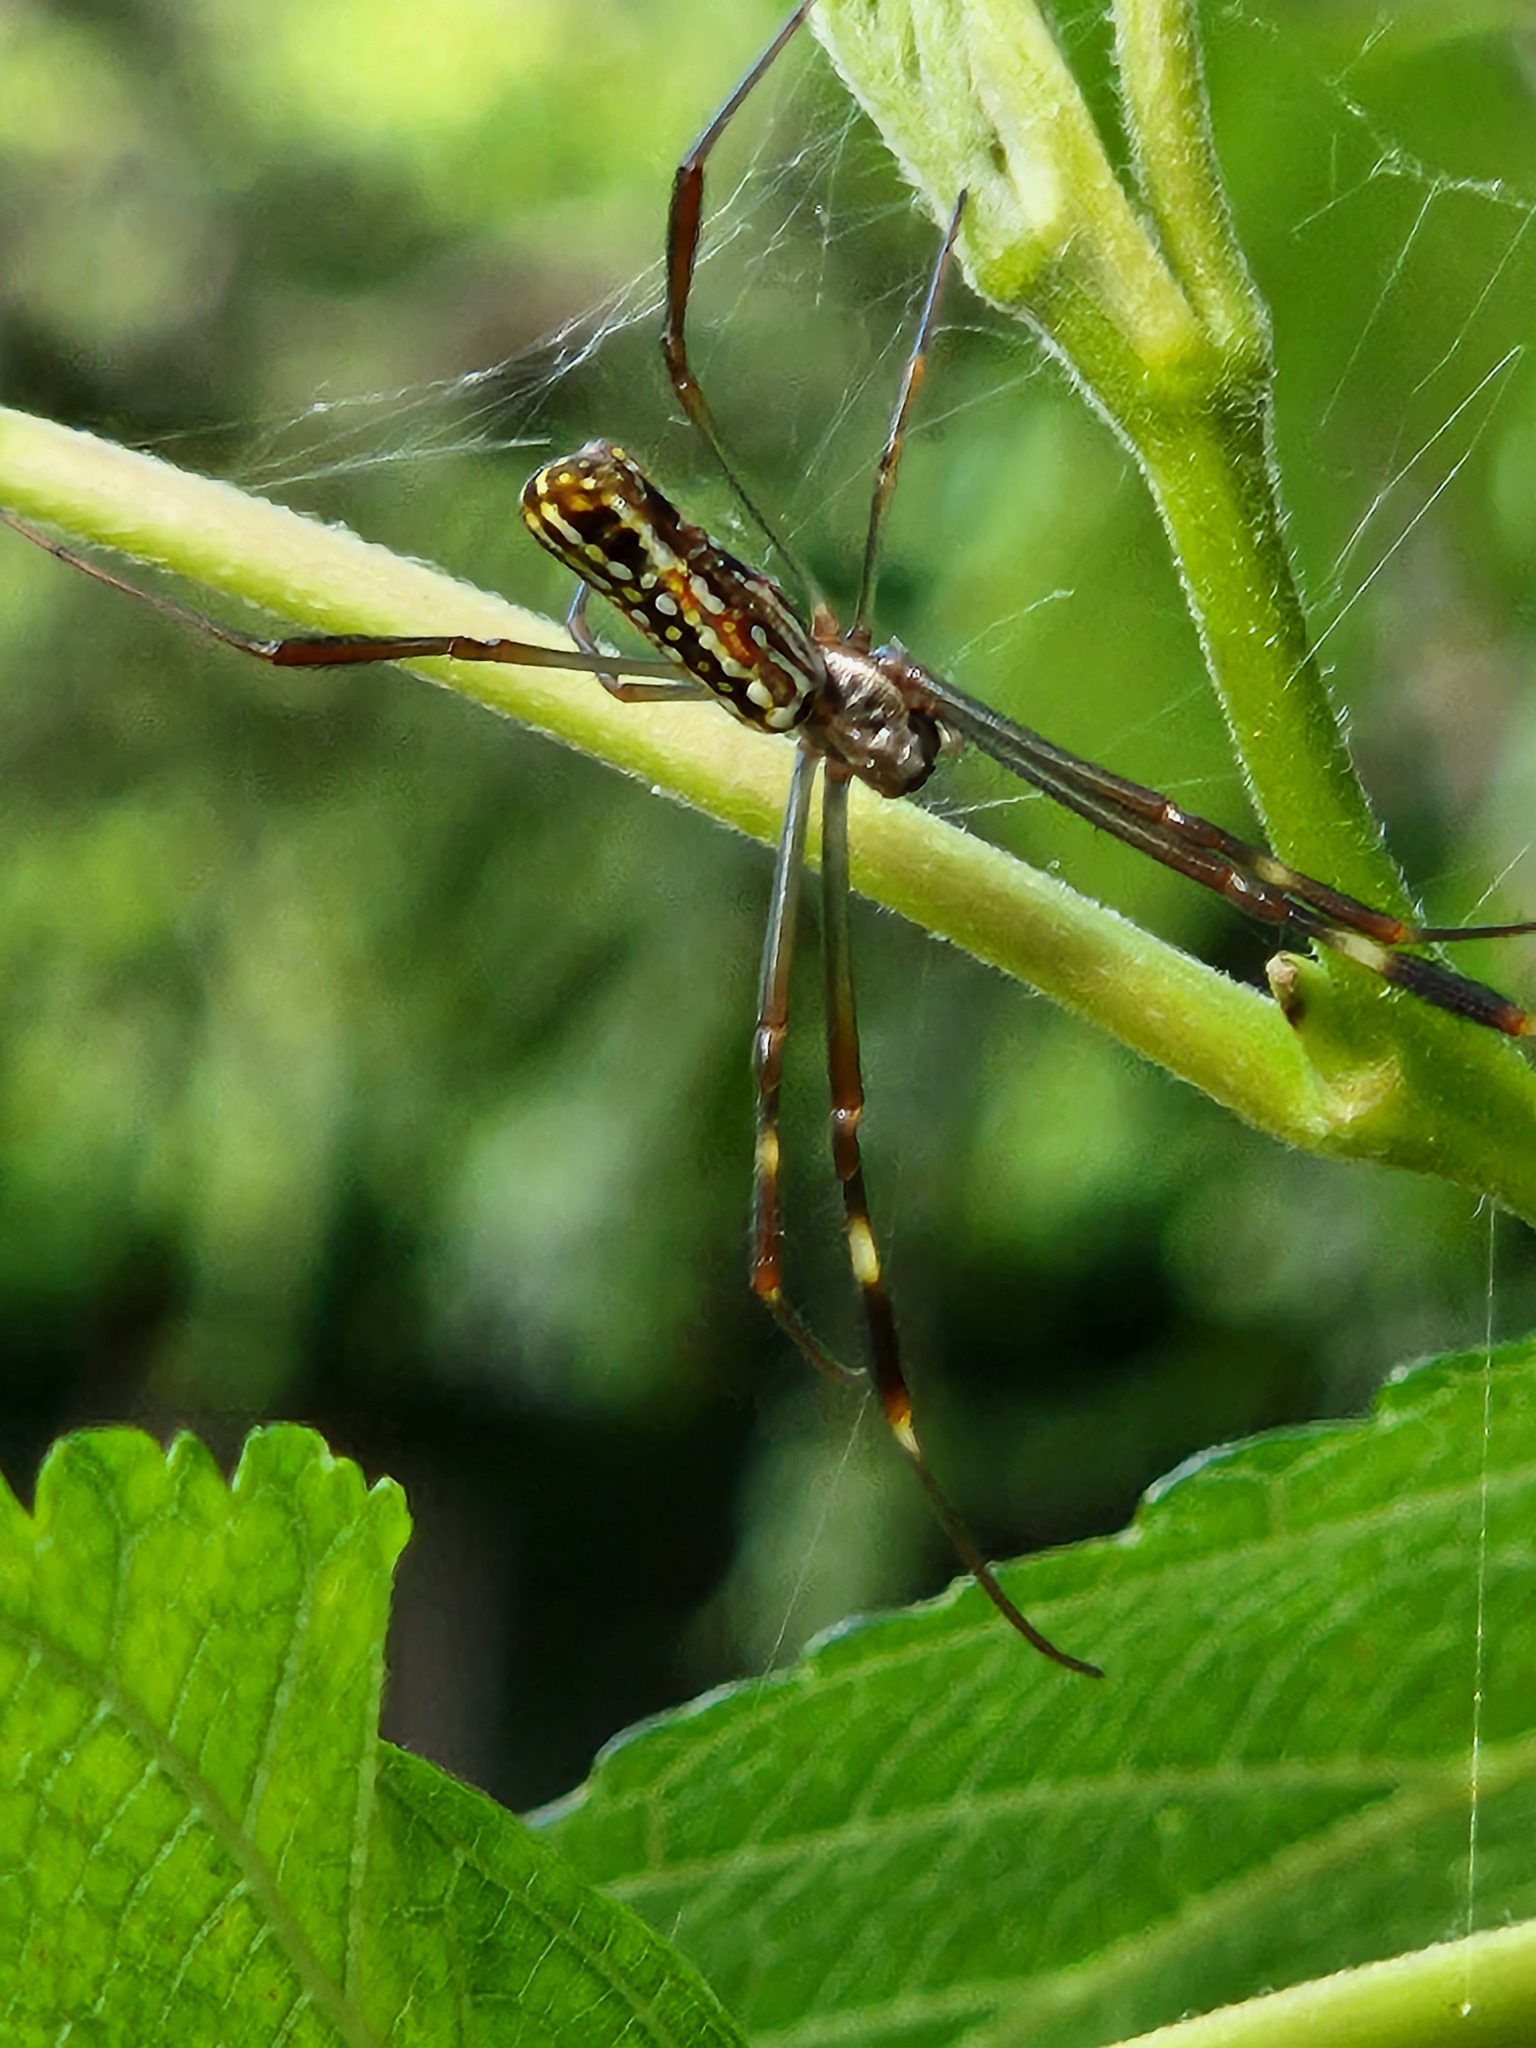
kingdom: Animalia
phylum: Arthropoda
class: Arachnida
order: Araneae
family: Araneidae
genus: Trichonephila
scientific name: Trichonephila clavipes
